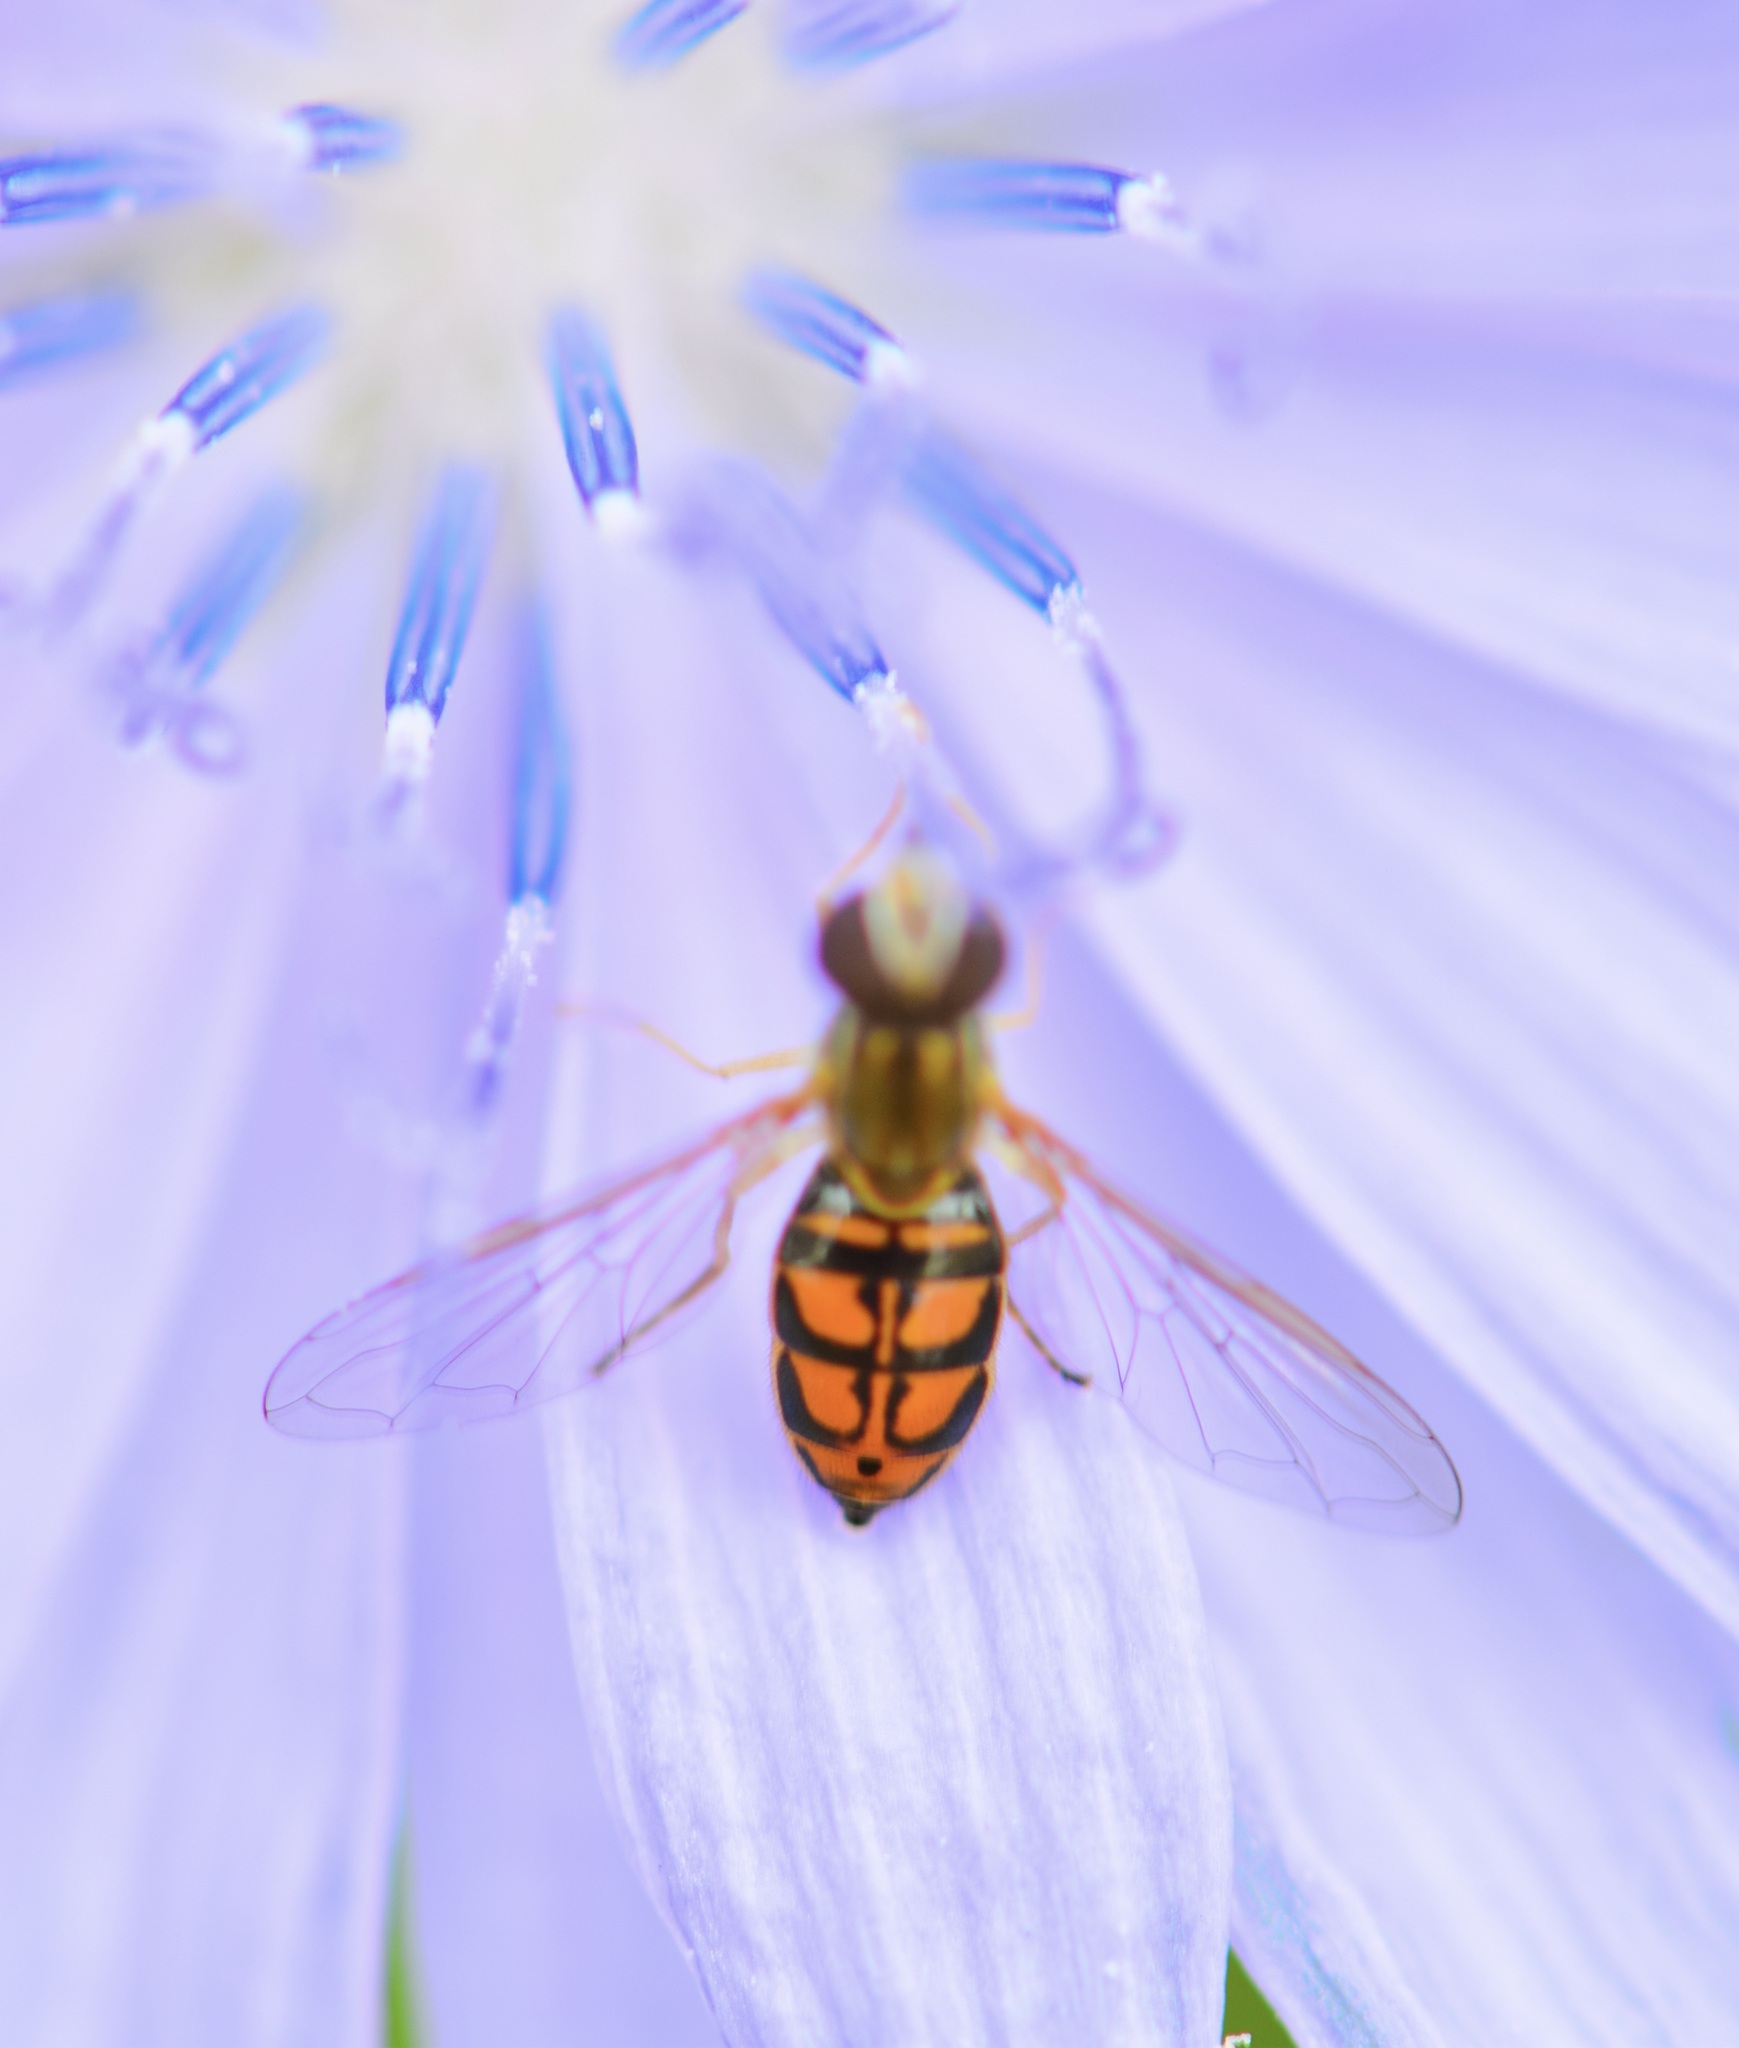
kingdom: Animalia
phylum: Arthropoda
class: Insecta
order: Diptera
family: Syrphidae
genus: Toxomerus
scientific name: Toxomerus marginatus
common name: Syrphid fly
